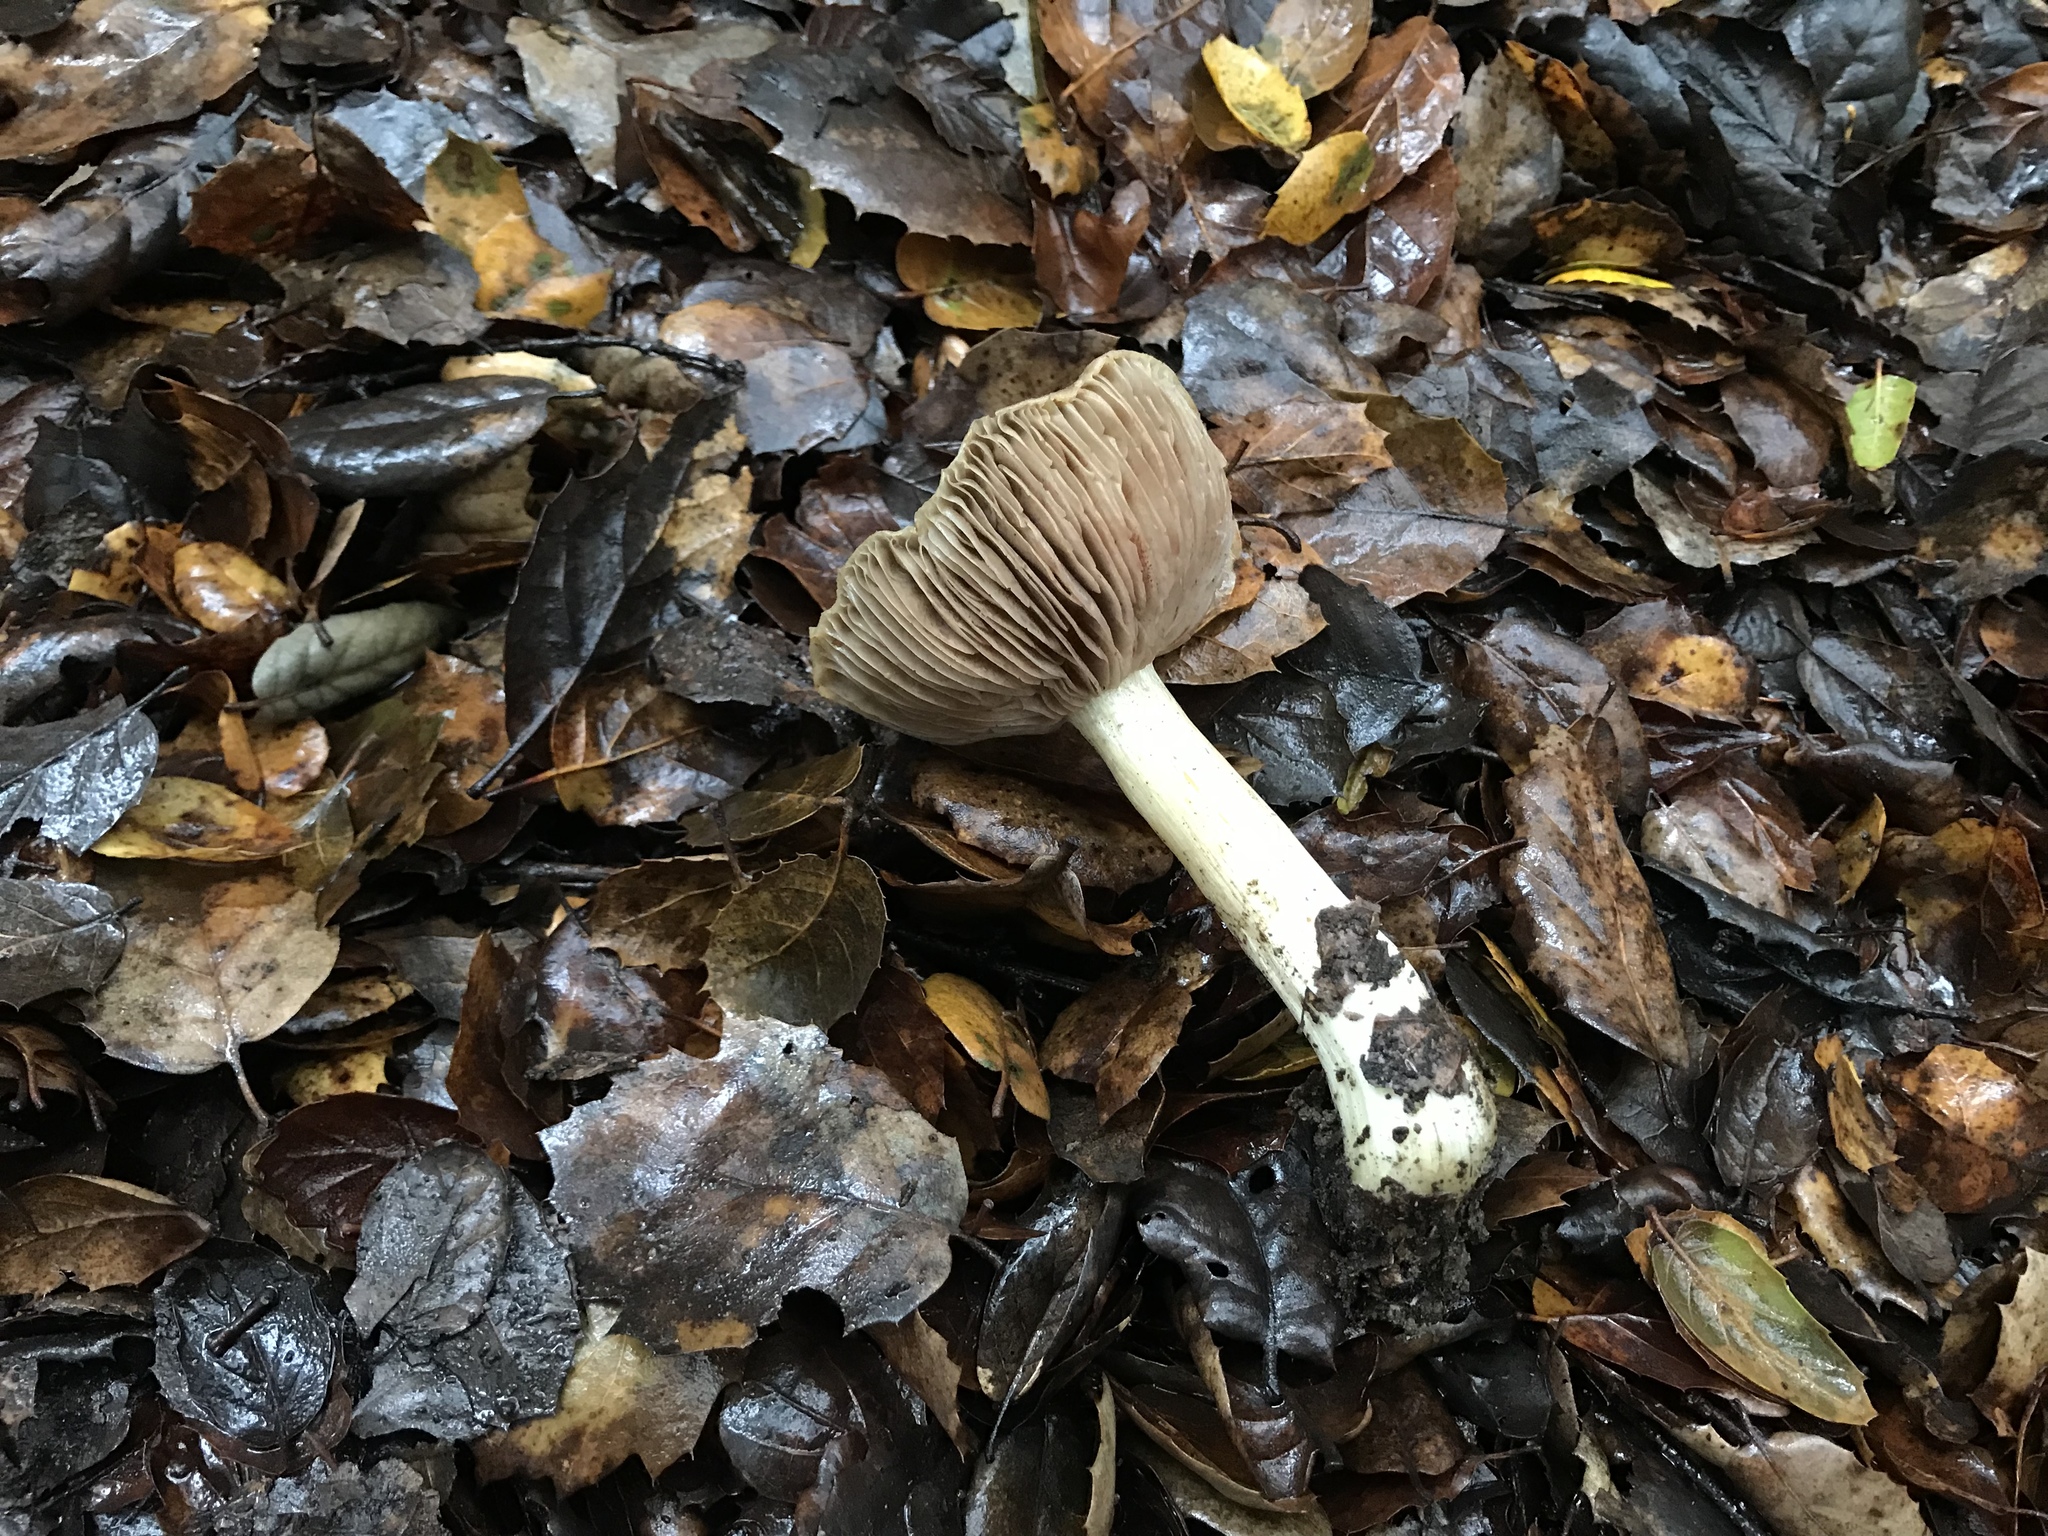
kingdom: Fungi
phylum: Basidiomycota
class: Agaricomycetes
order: Agaricales
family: Entolomataceae
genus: Entoloma
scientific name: Entoloma cinereolamellatum
